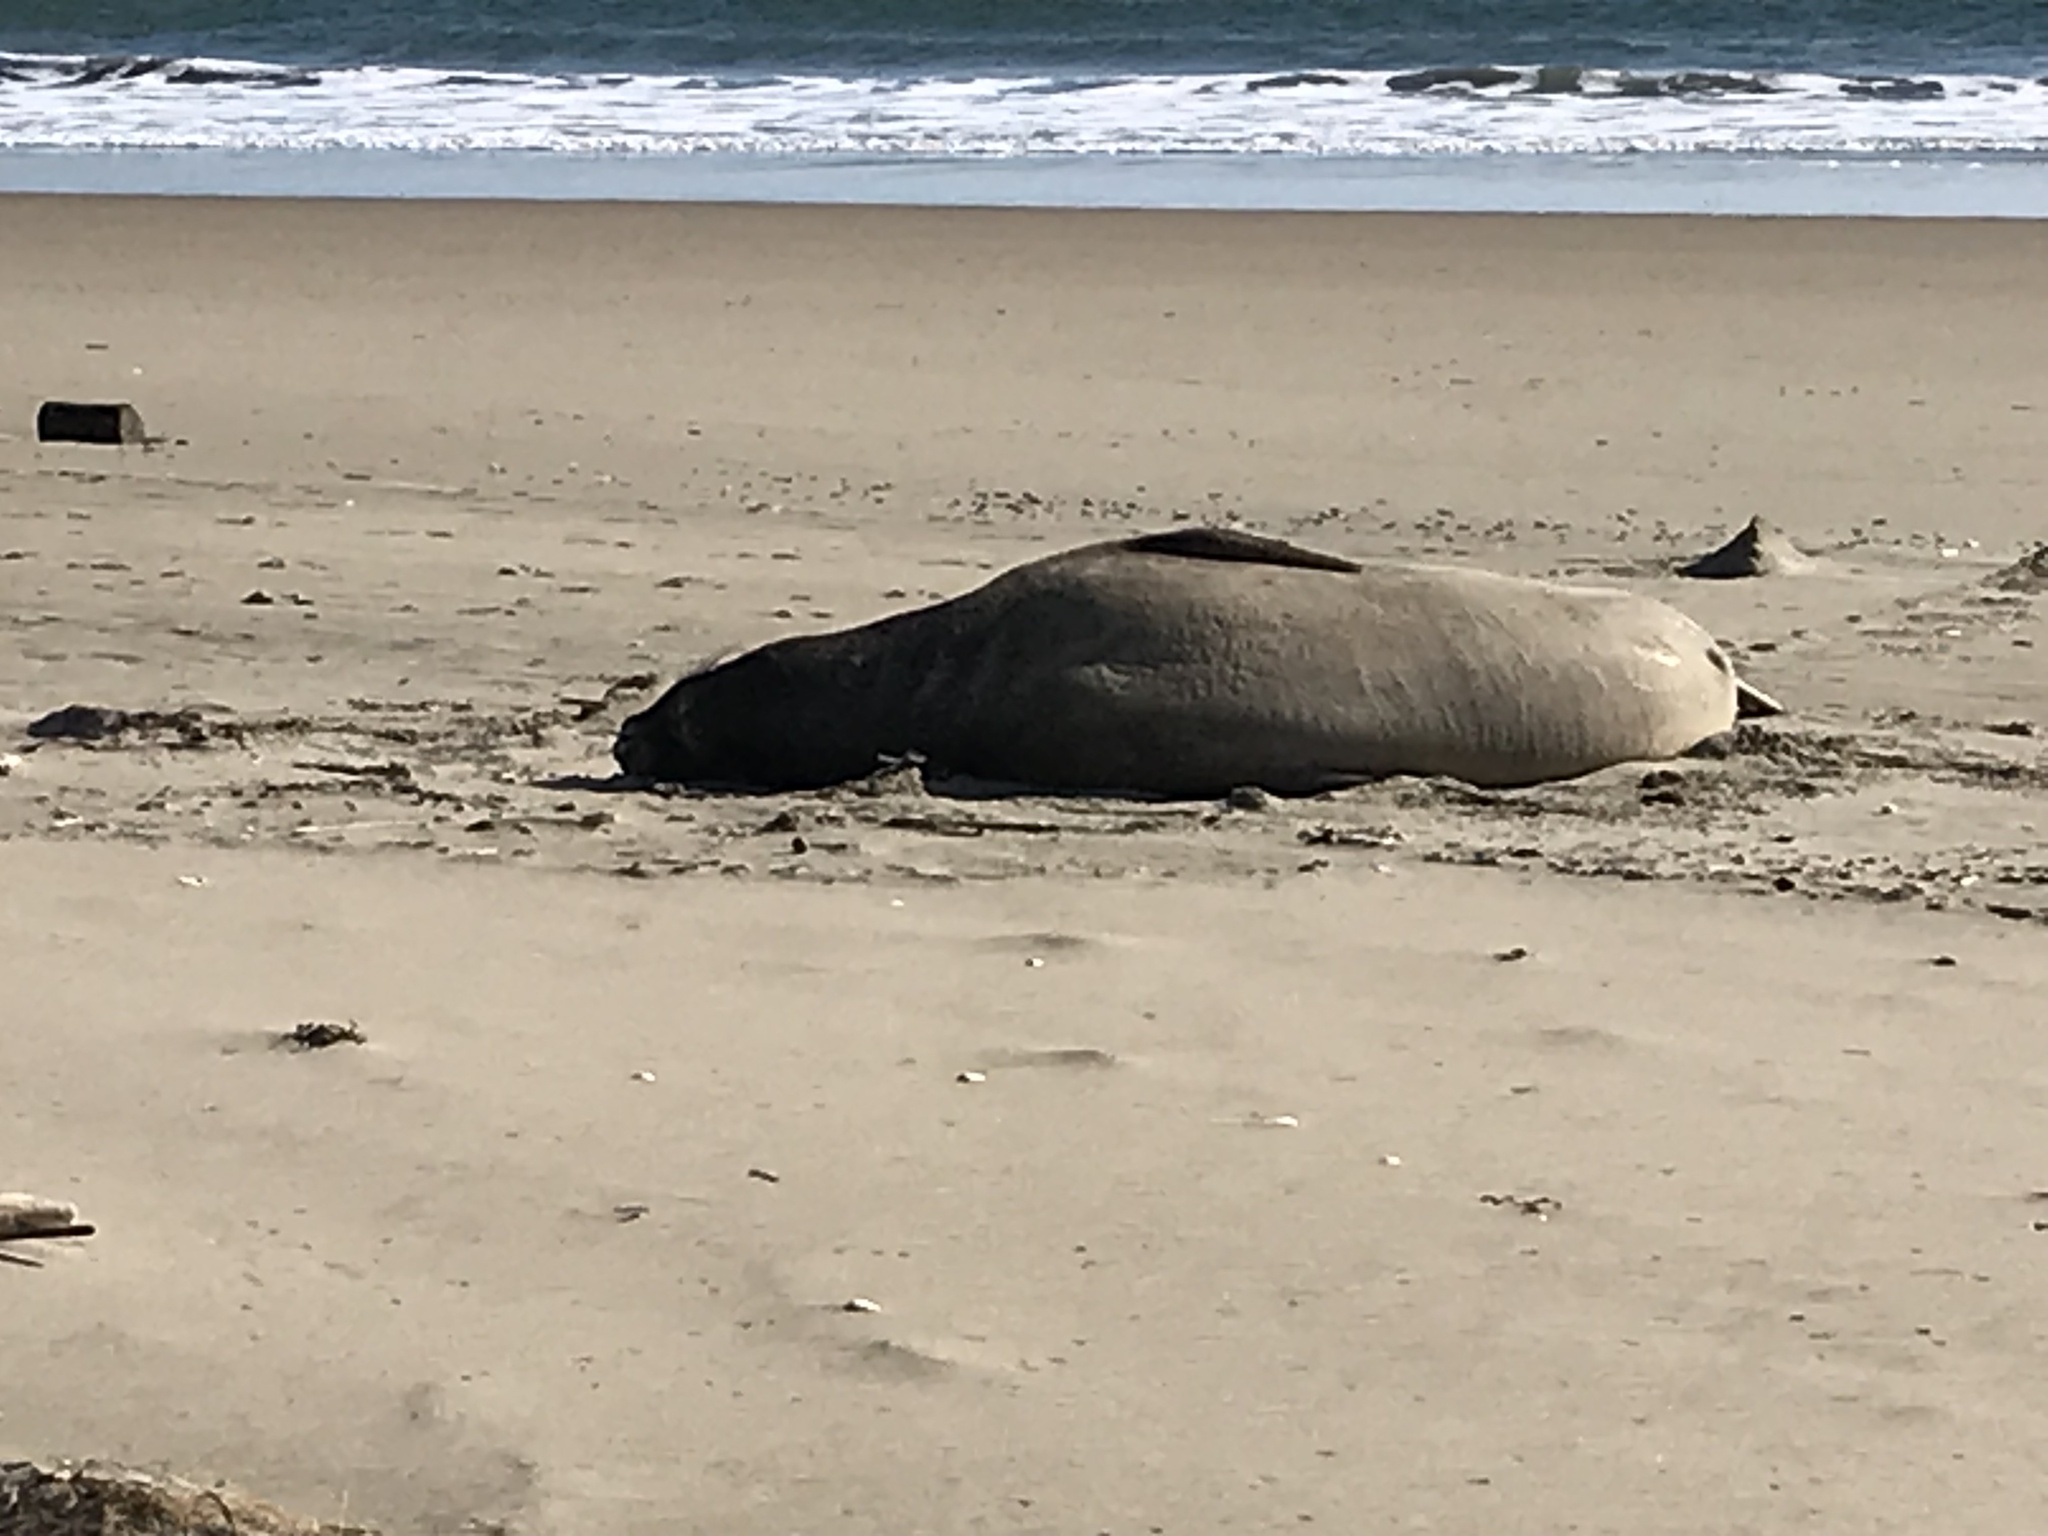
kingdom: Animalia
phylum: Chordata
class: Mammalia
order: Carnivora
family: Phocidae
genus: Mirounga
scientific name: Mirounga angustirostris
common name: Northern elephant seal
